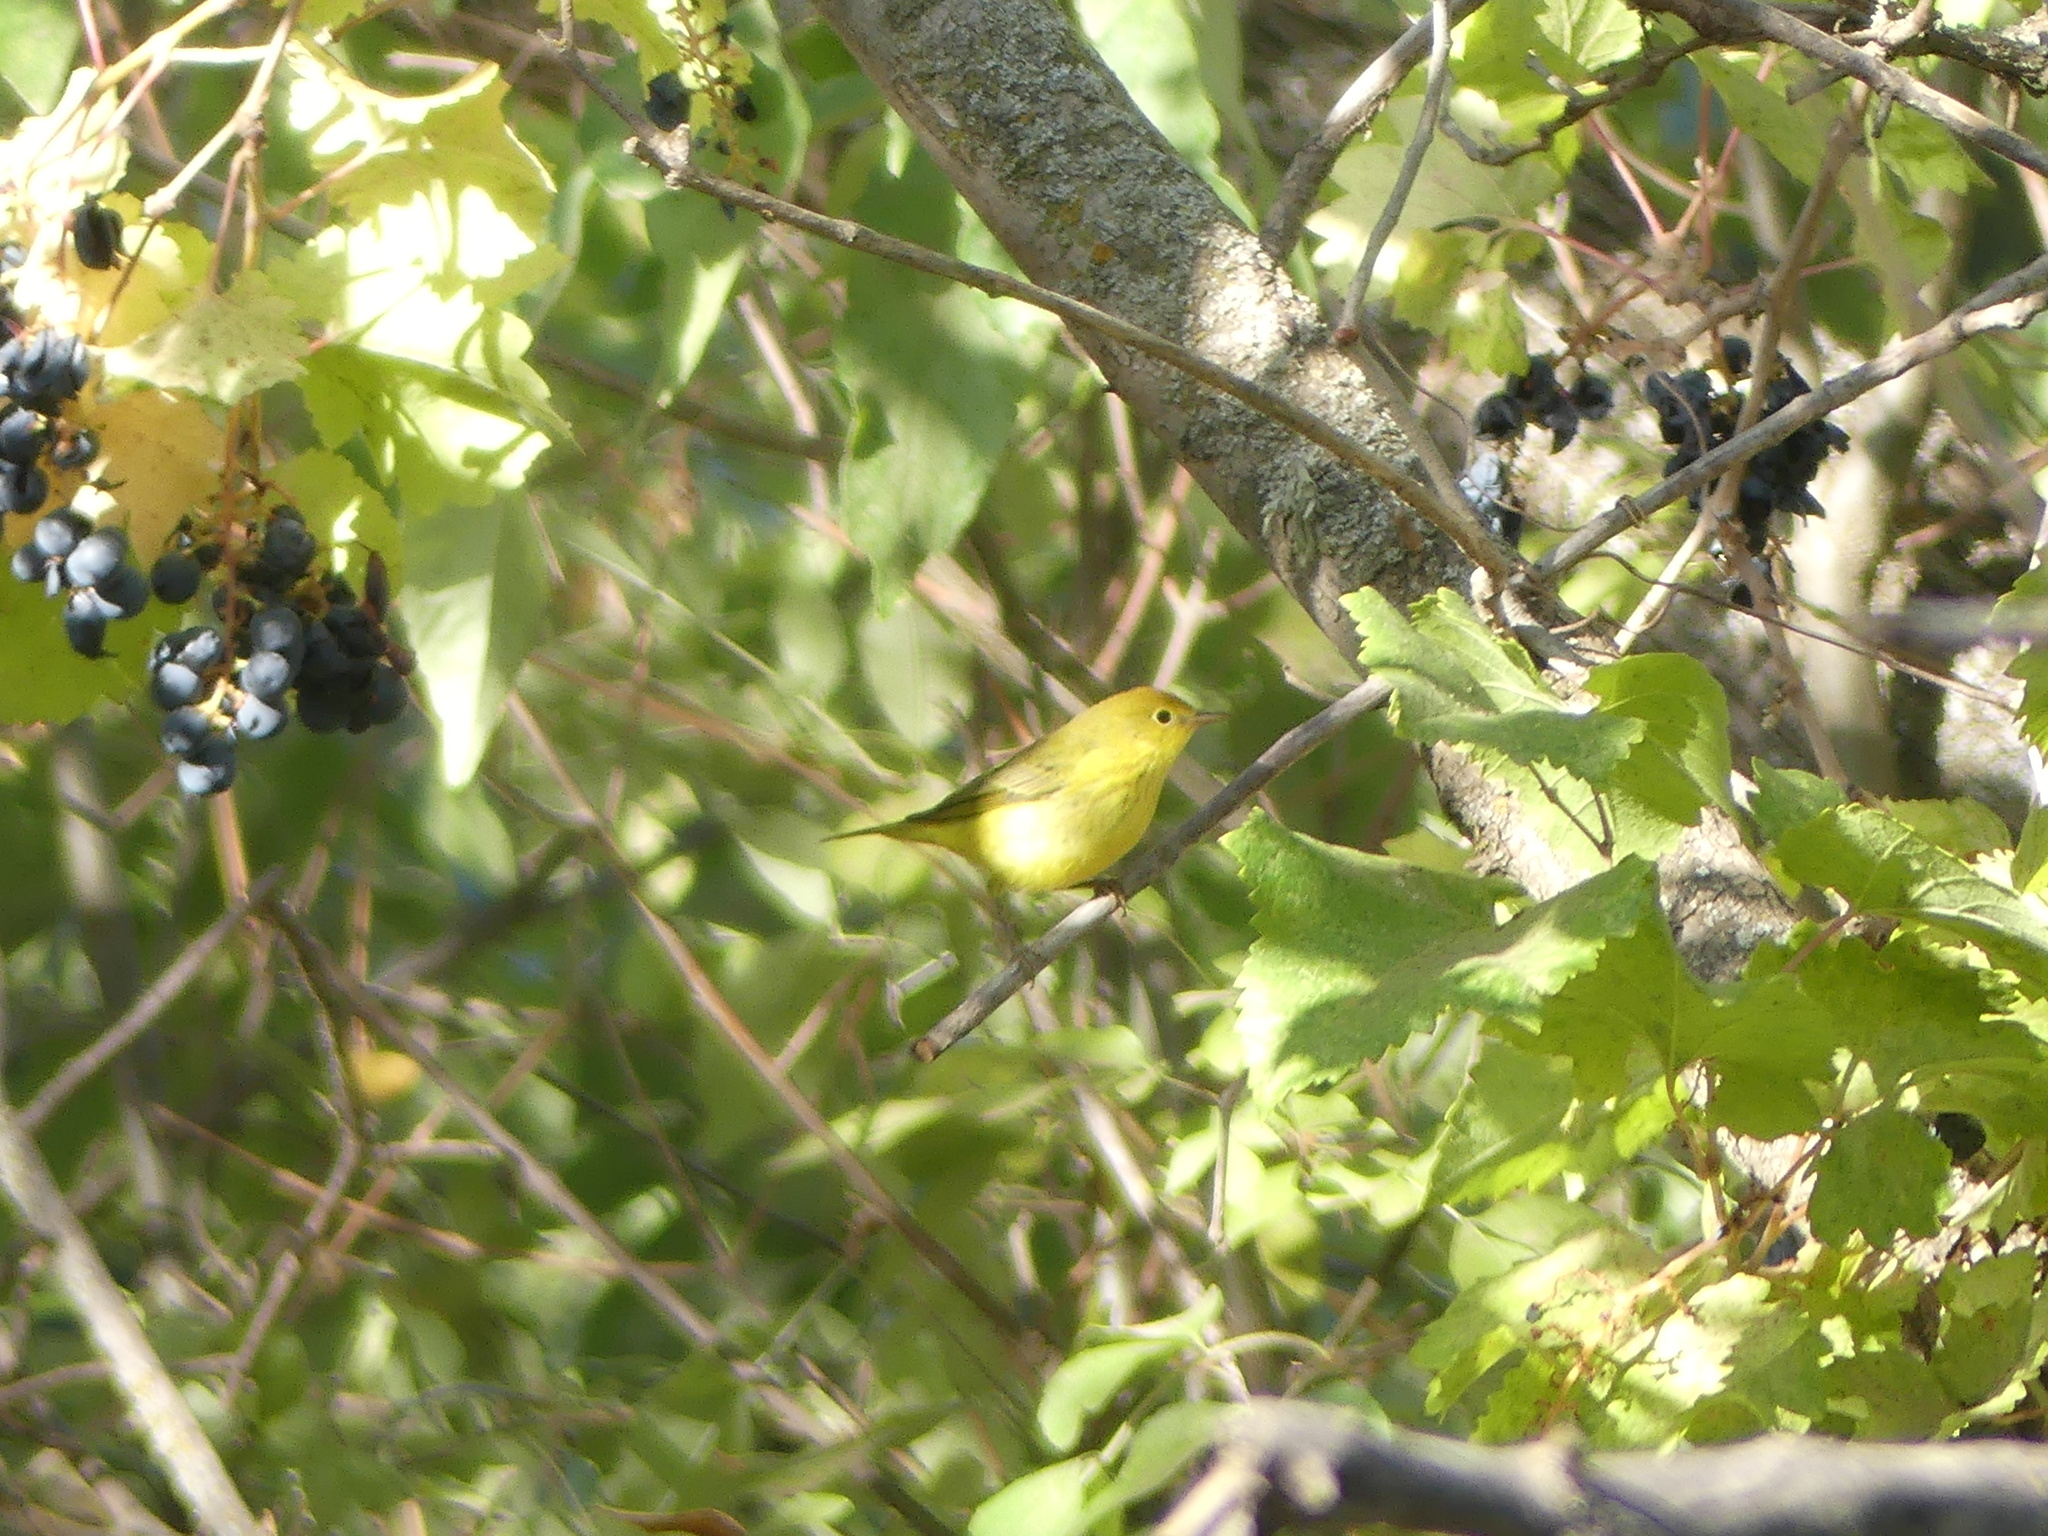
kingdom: Animalia
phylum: Chordata
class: Aves
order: Passeriformes
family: Parulidae
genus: Setophaga
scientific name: Setophaga petechia
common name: Yellow warbler
